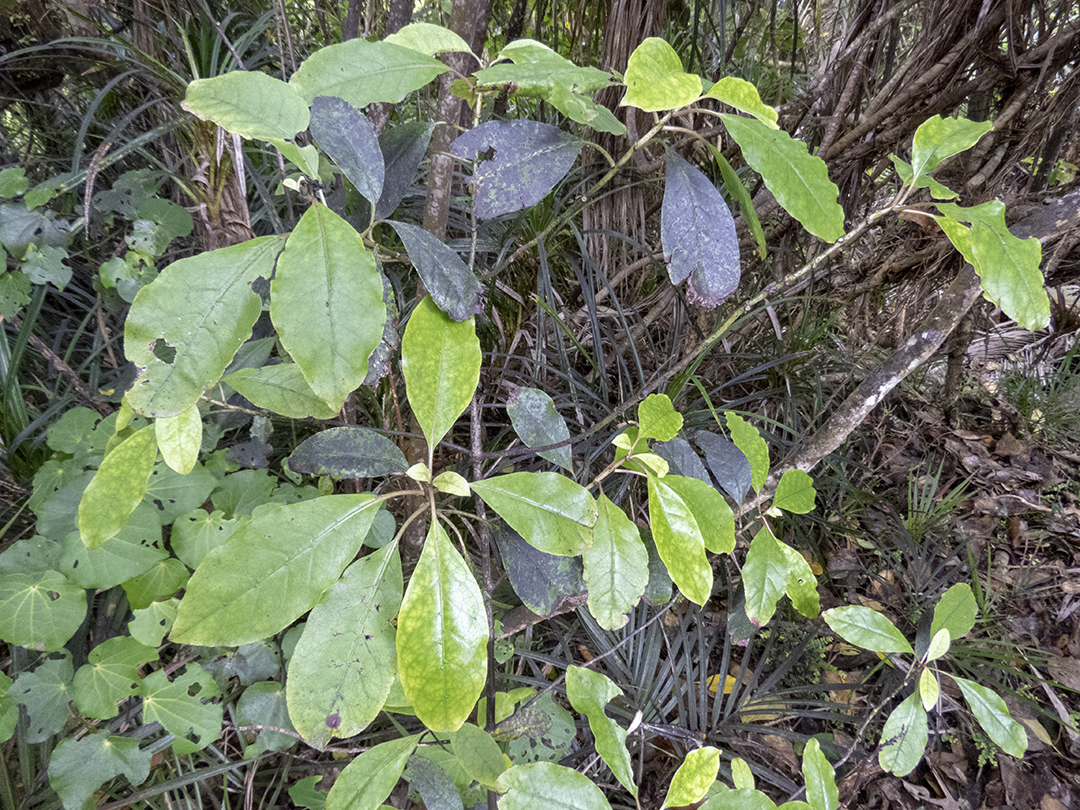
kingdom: Plantae
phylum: Tracheophyta
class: Magnoliopsida
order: Gentianales
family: Rubiaceae
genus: Coprosma
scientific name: Coprosma autumnalis
